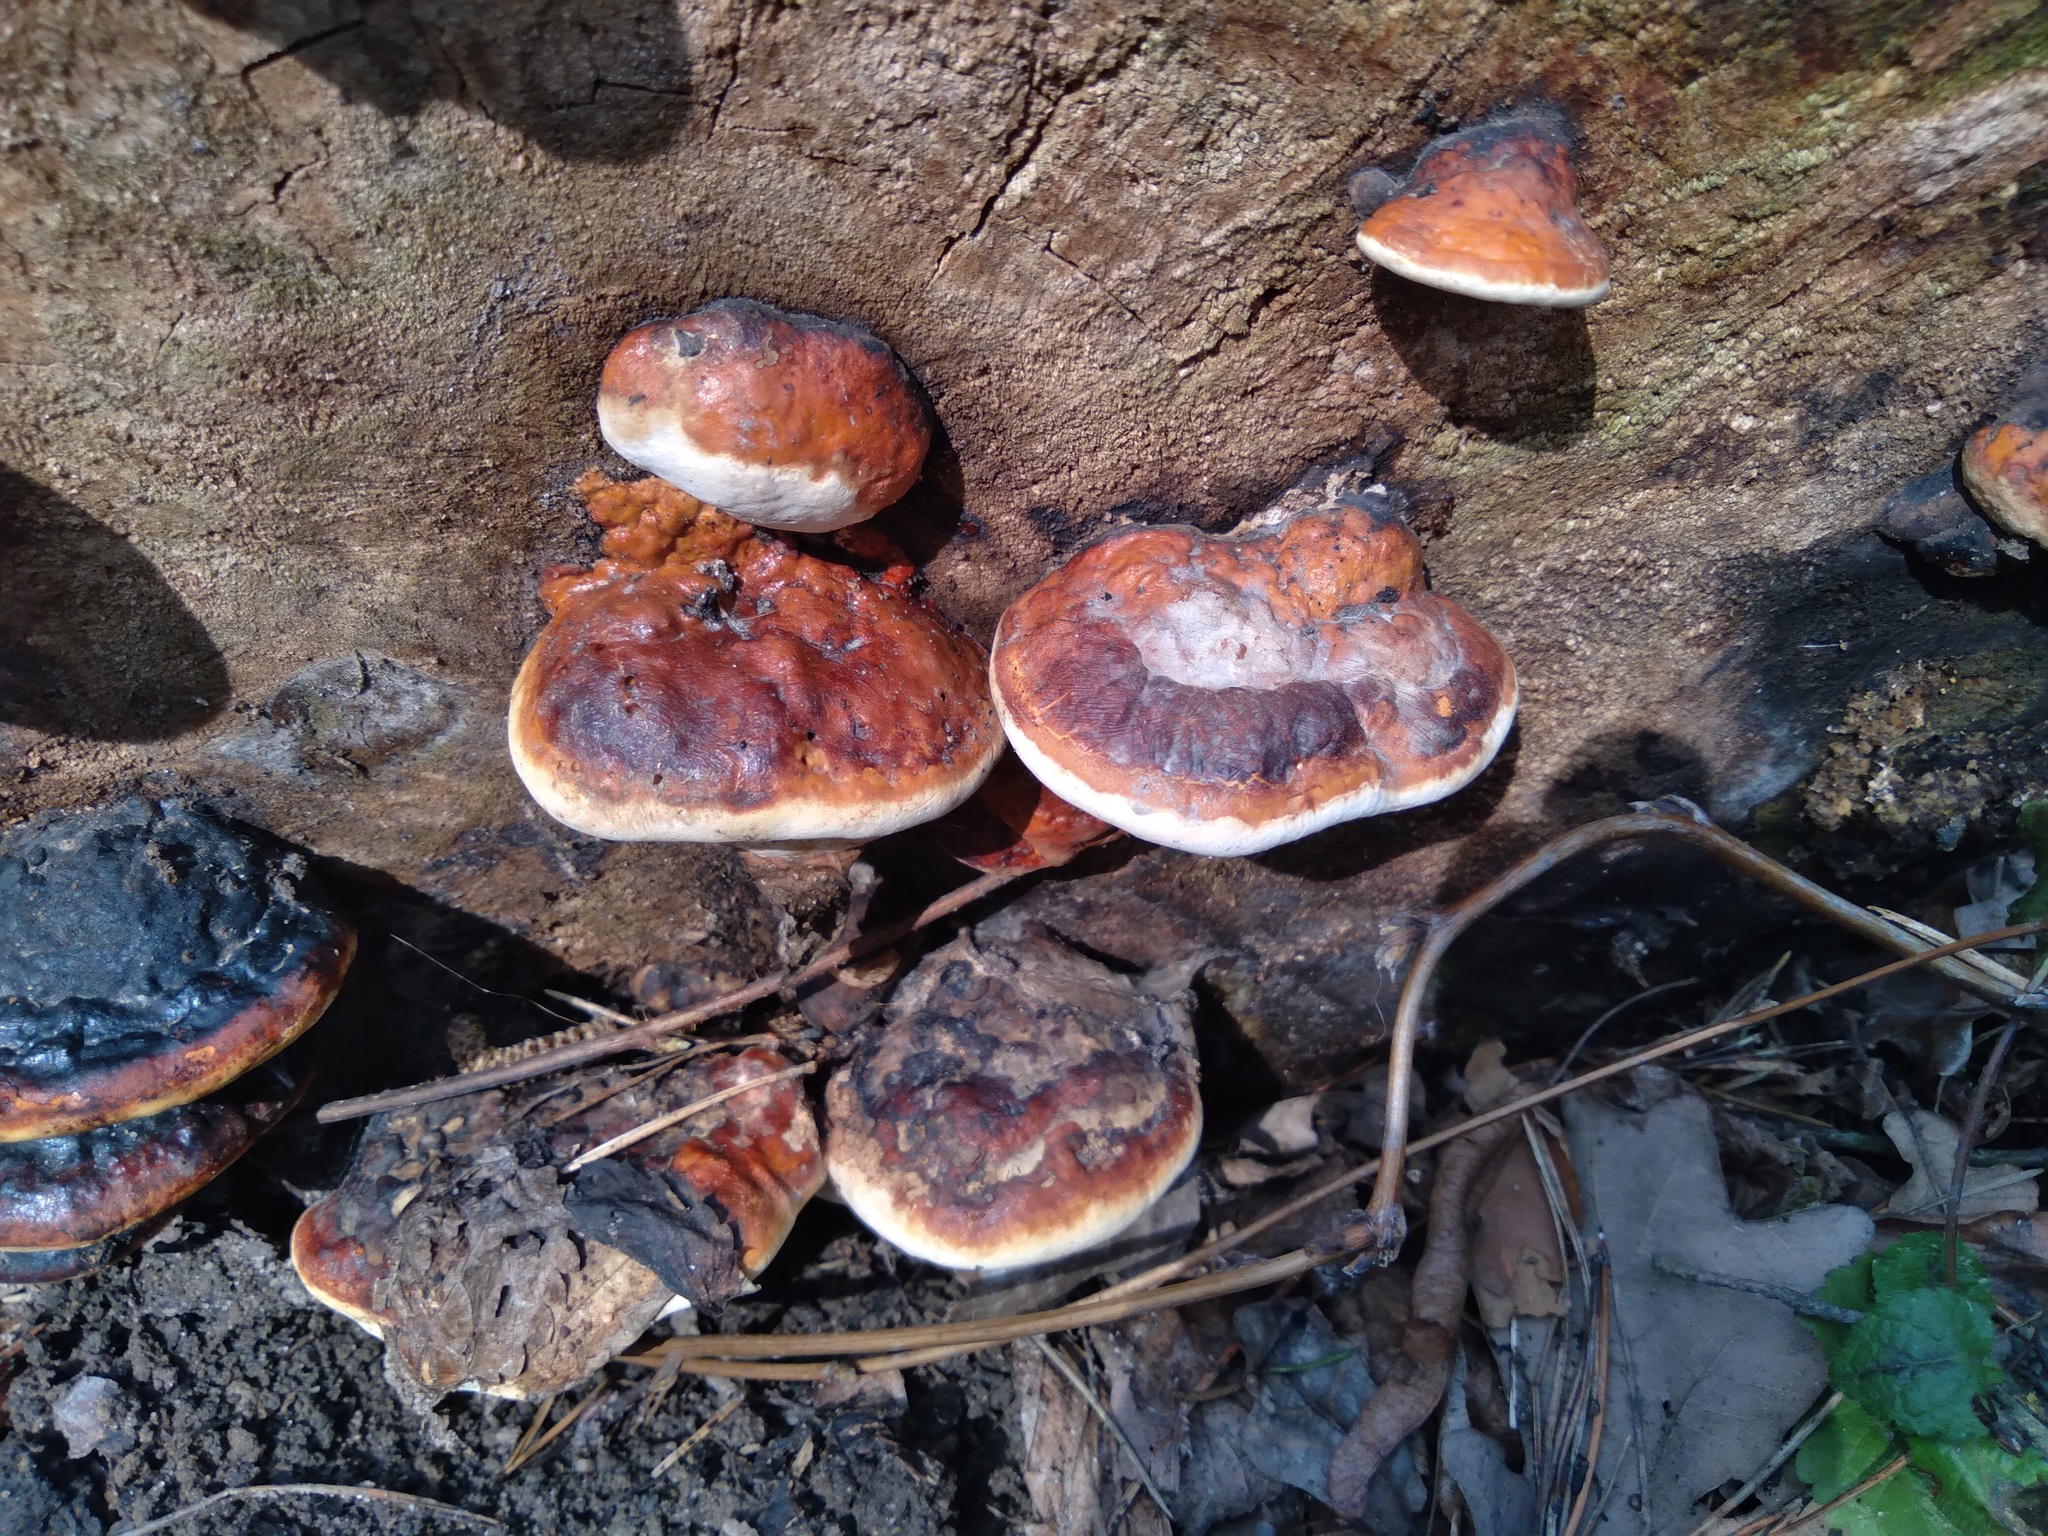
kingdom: Fungi
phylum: Basidiomycota
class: Agaricomycetes
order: Polyporales
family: Fomitopsidaceae
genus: Fomitopsis
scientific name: Fomitopsis pinicola
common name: Red-belted bracket
